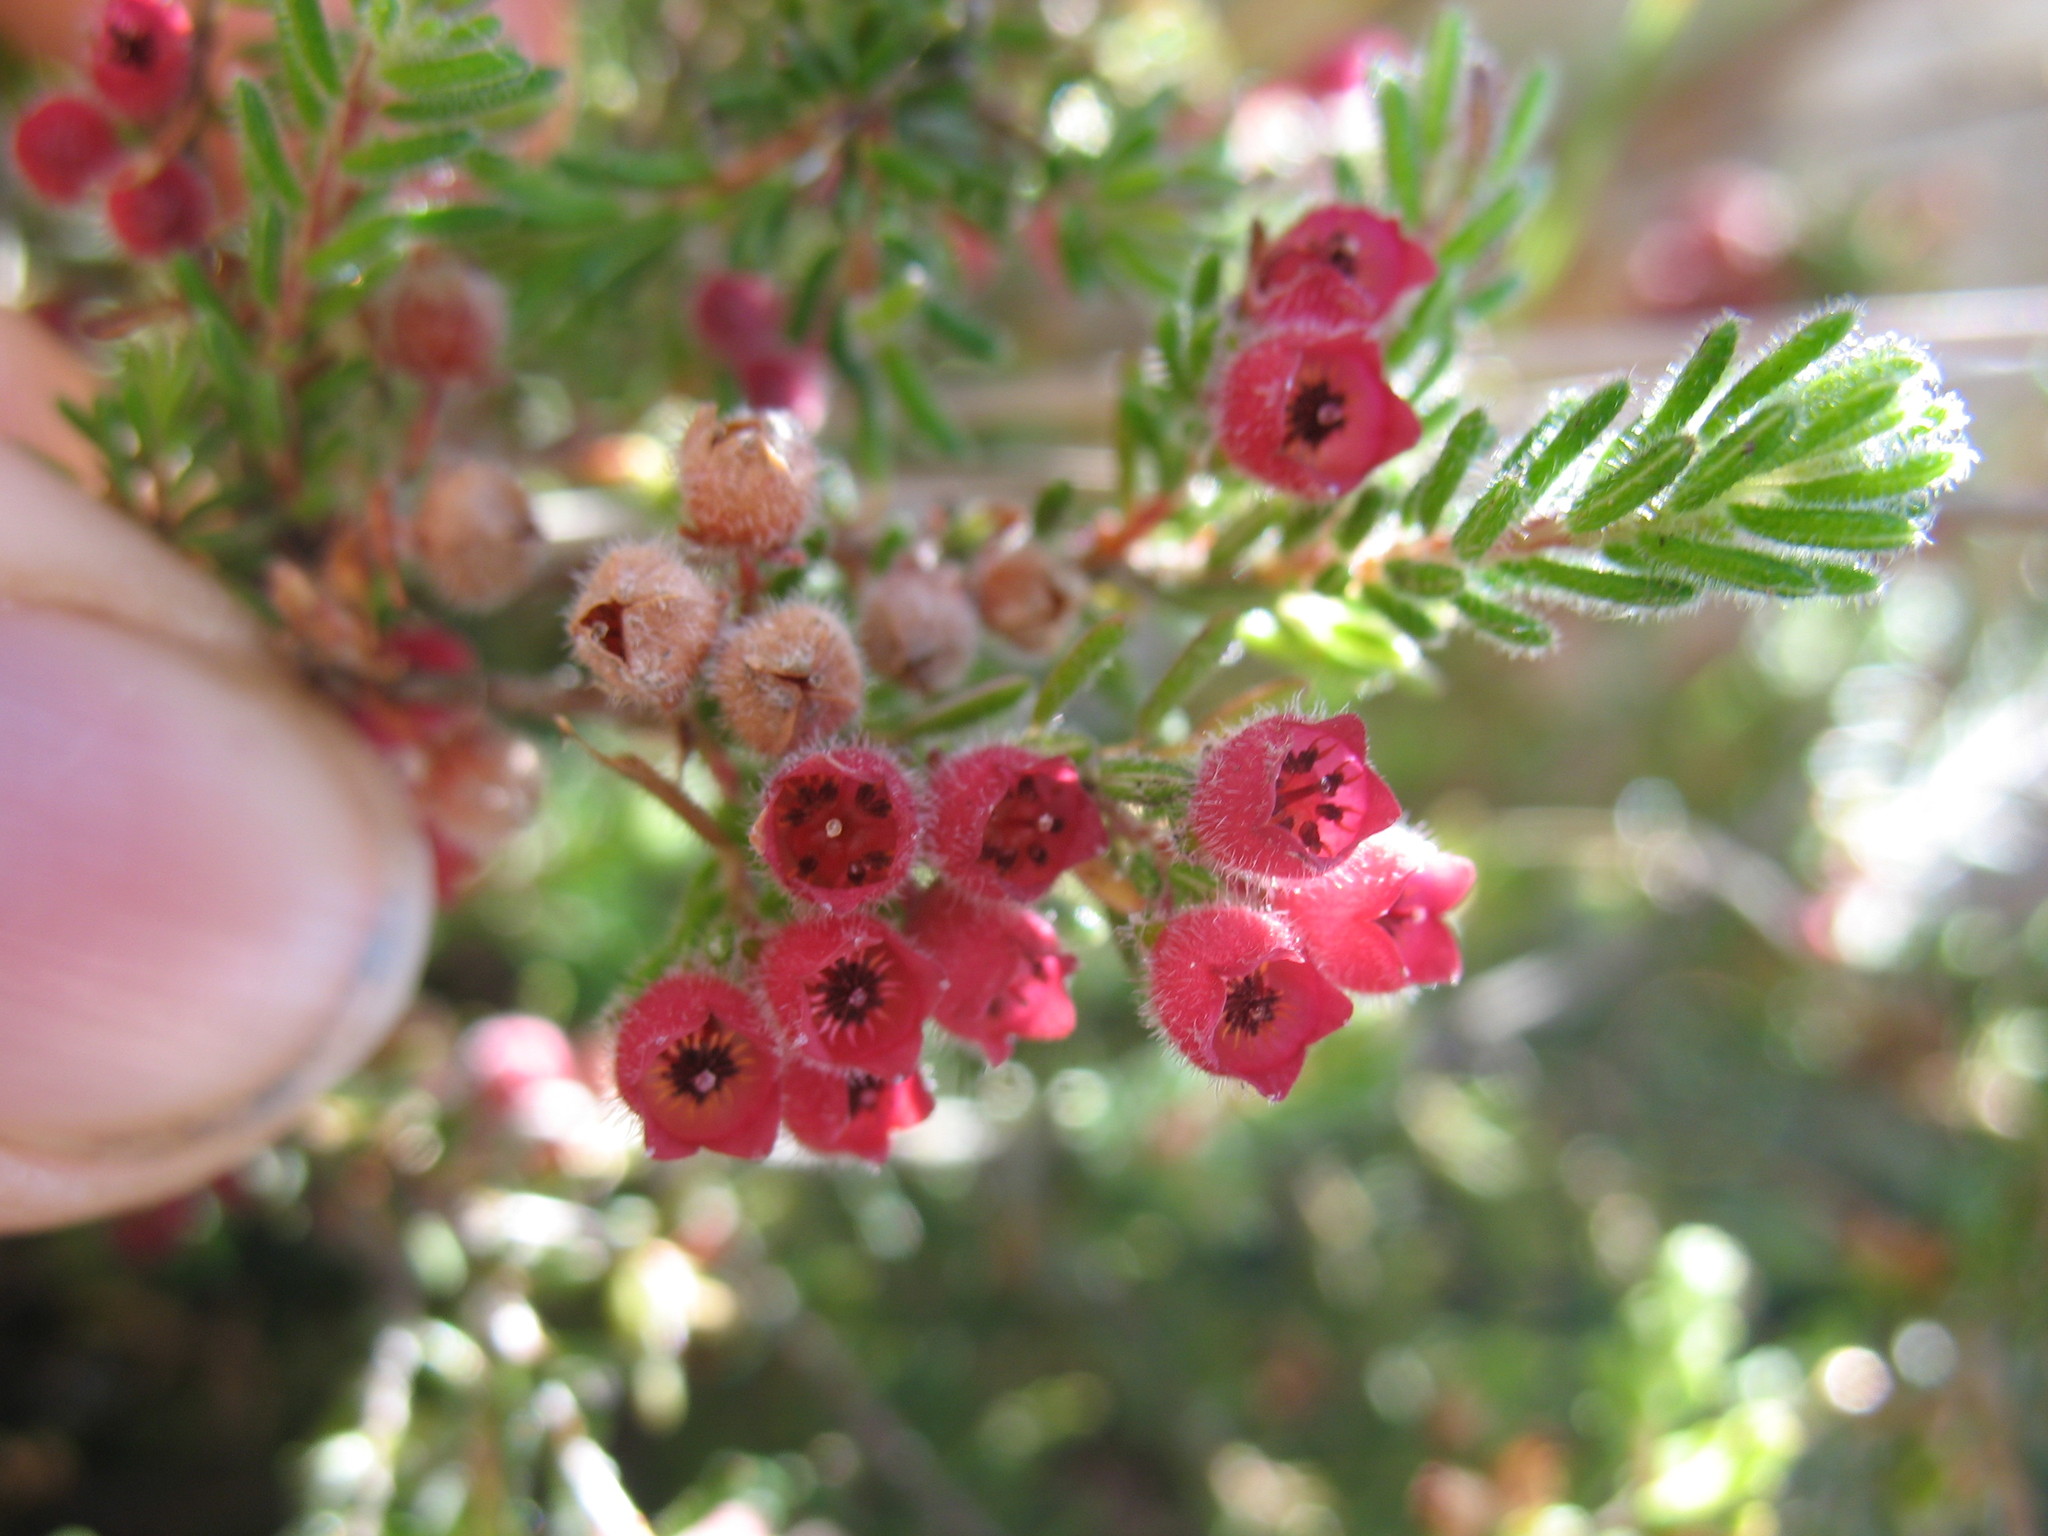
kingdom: Plantae
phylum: Tracheophyta
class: Magnoliopsida
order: Ericales
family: Ericaceae
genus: Erica
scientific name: Erica haematocodon
